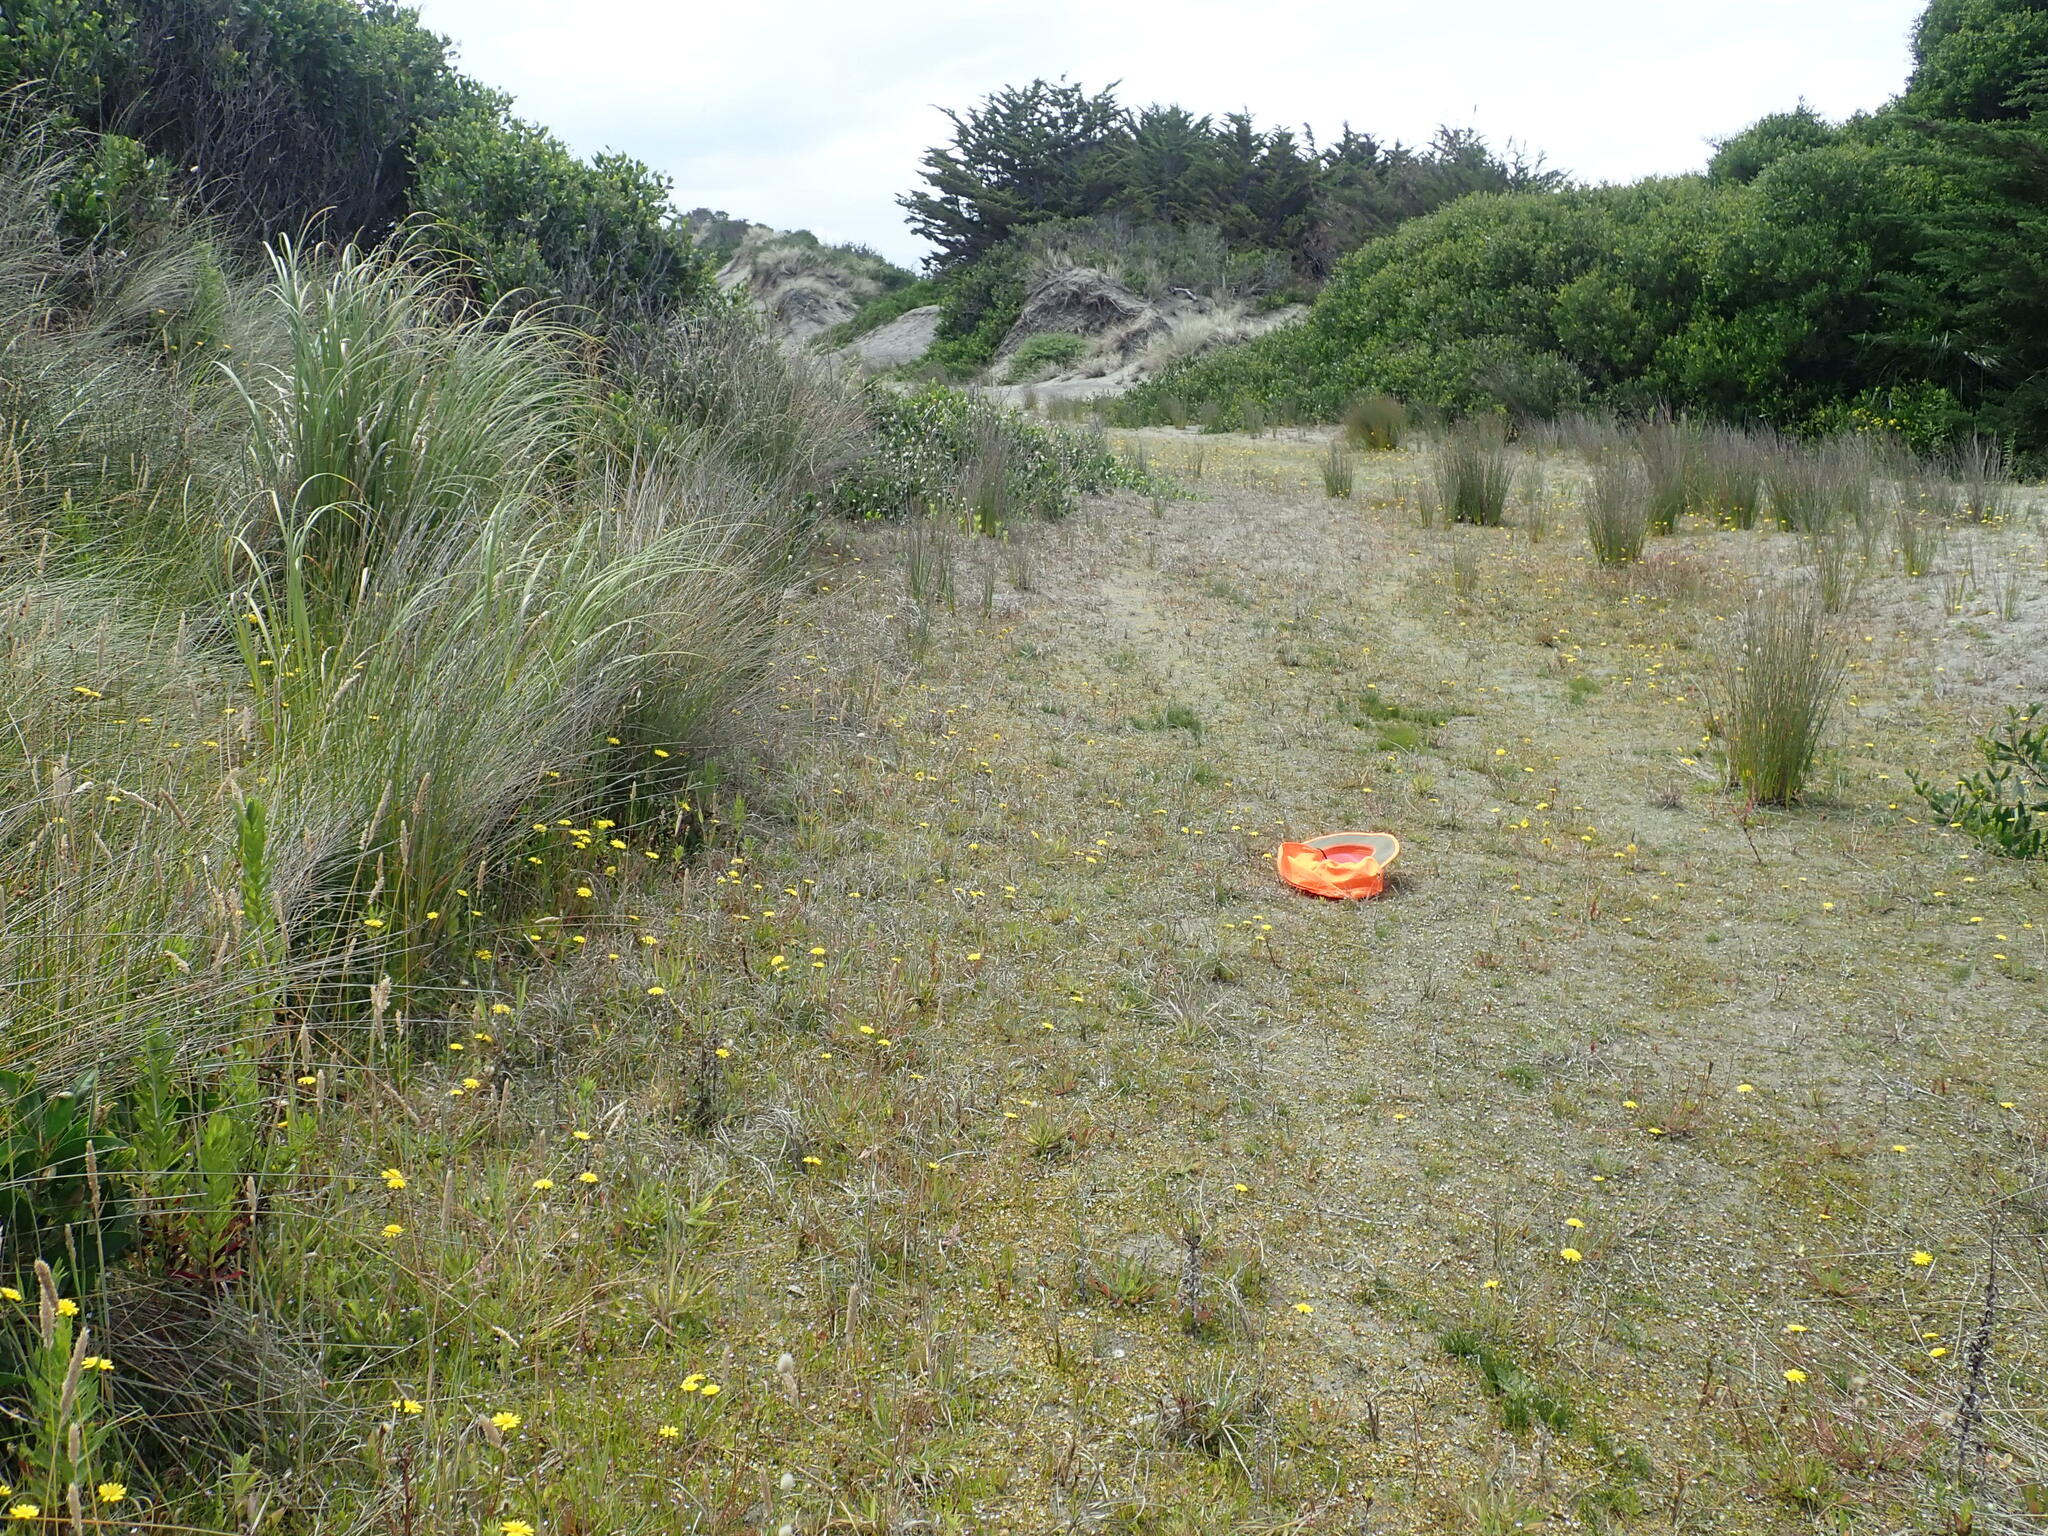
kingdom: Plantae
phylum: Tracheophyta
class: Magnoliopsida
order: Myrtales
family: Onagraceae
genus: Epilobium
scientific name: Epilobium billardiereanum
